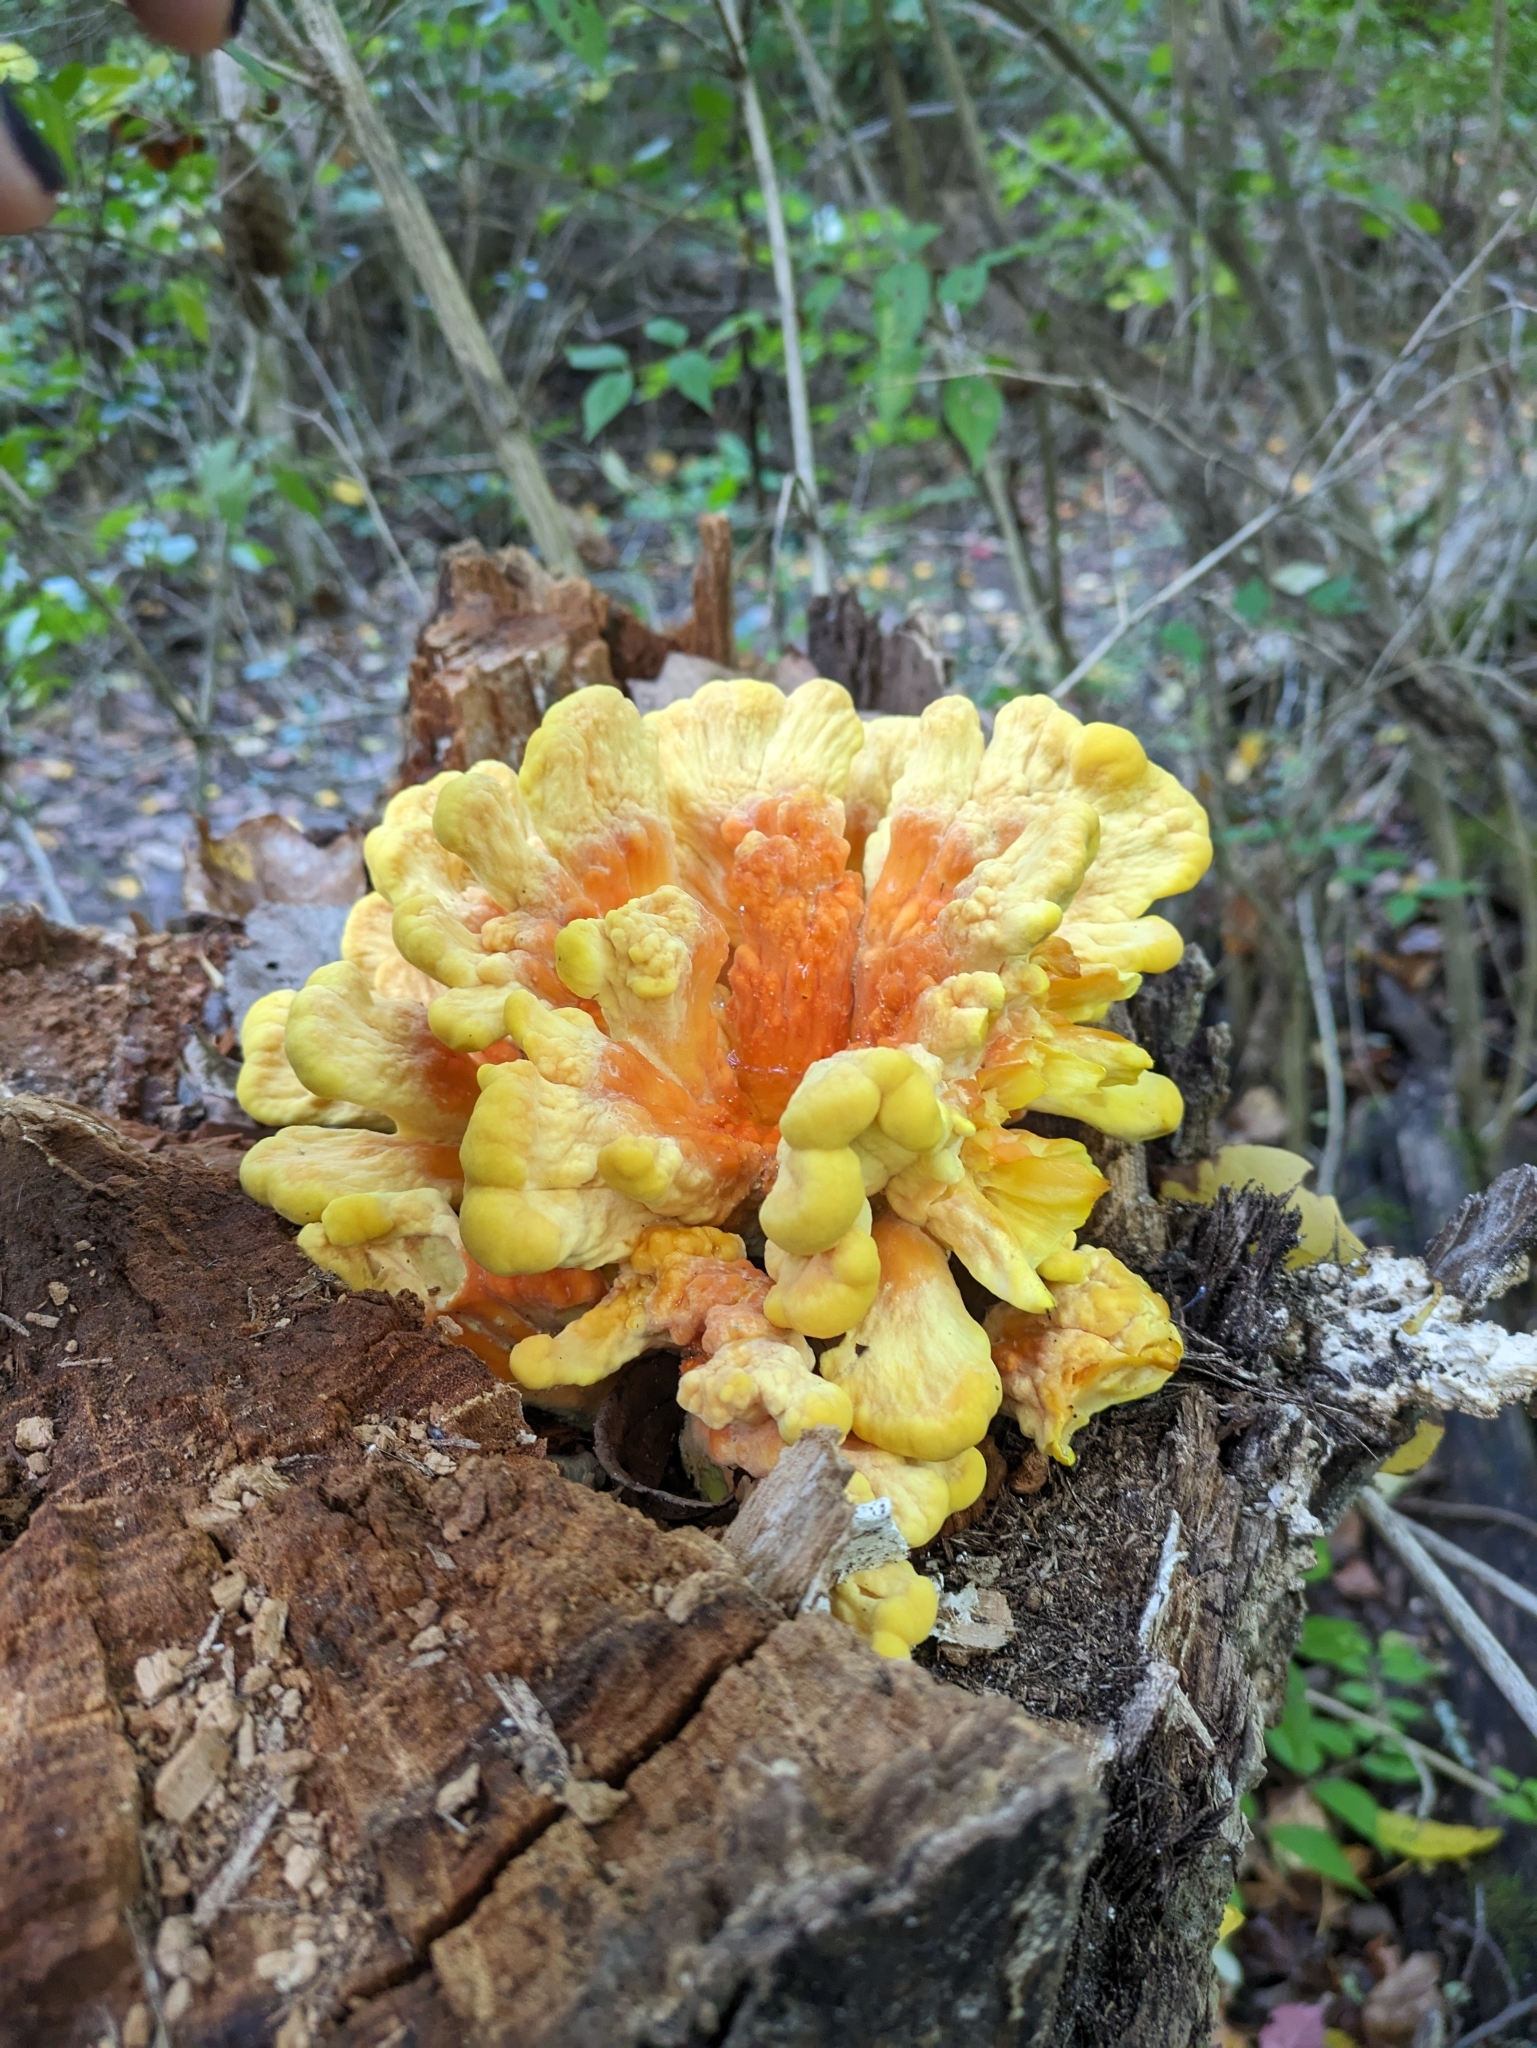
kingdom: Fungi
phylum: Basidiomycota
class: Agaricomycetes
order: Polyporales
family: Laetiporaceae
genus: Laetiporus
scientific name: Laetiporus sulphureus
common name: Chicken of the woods
